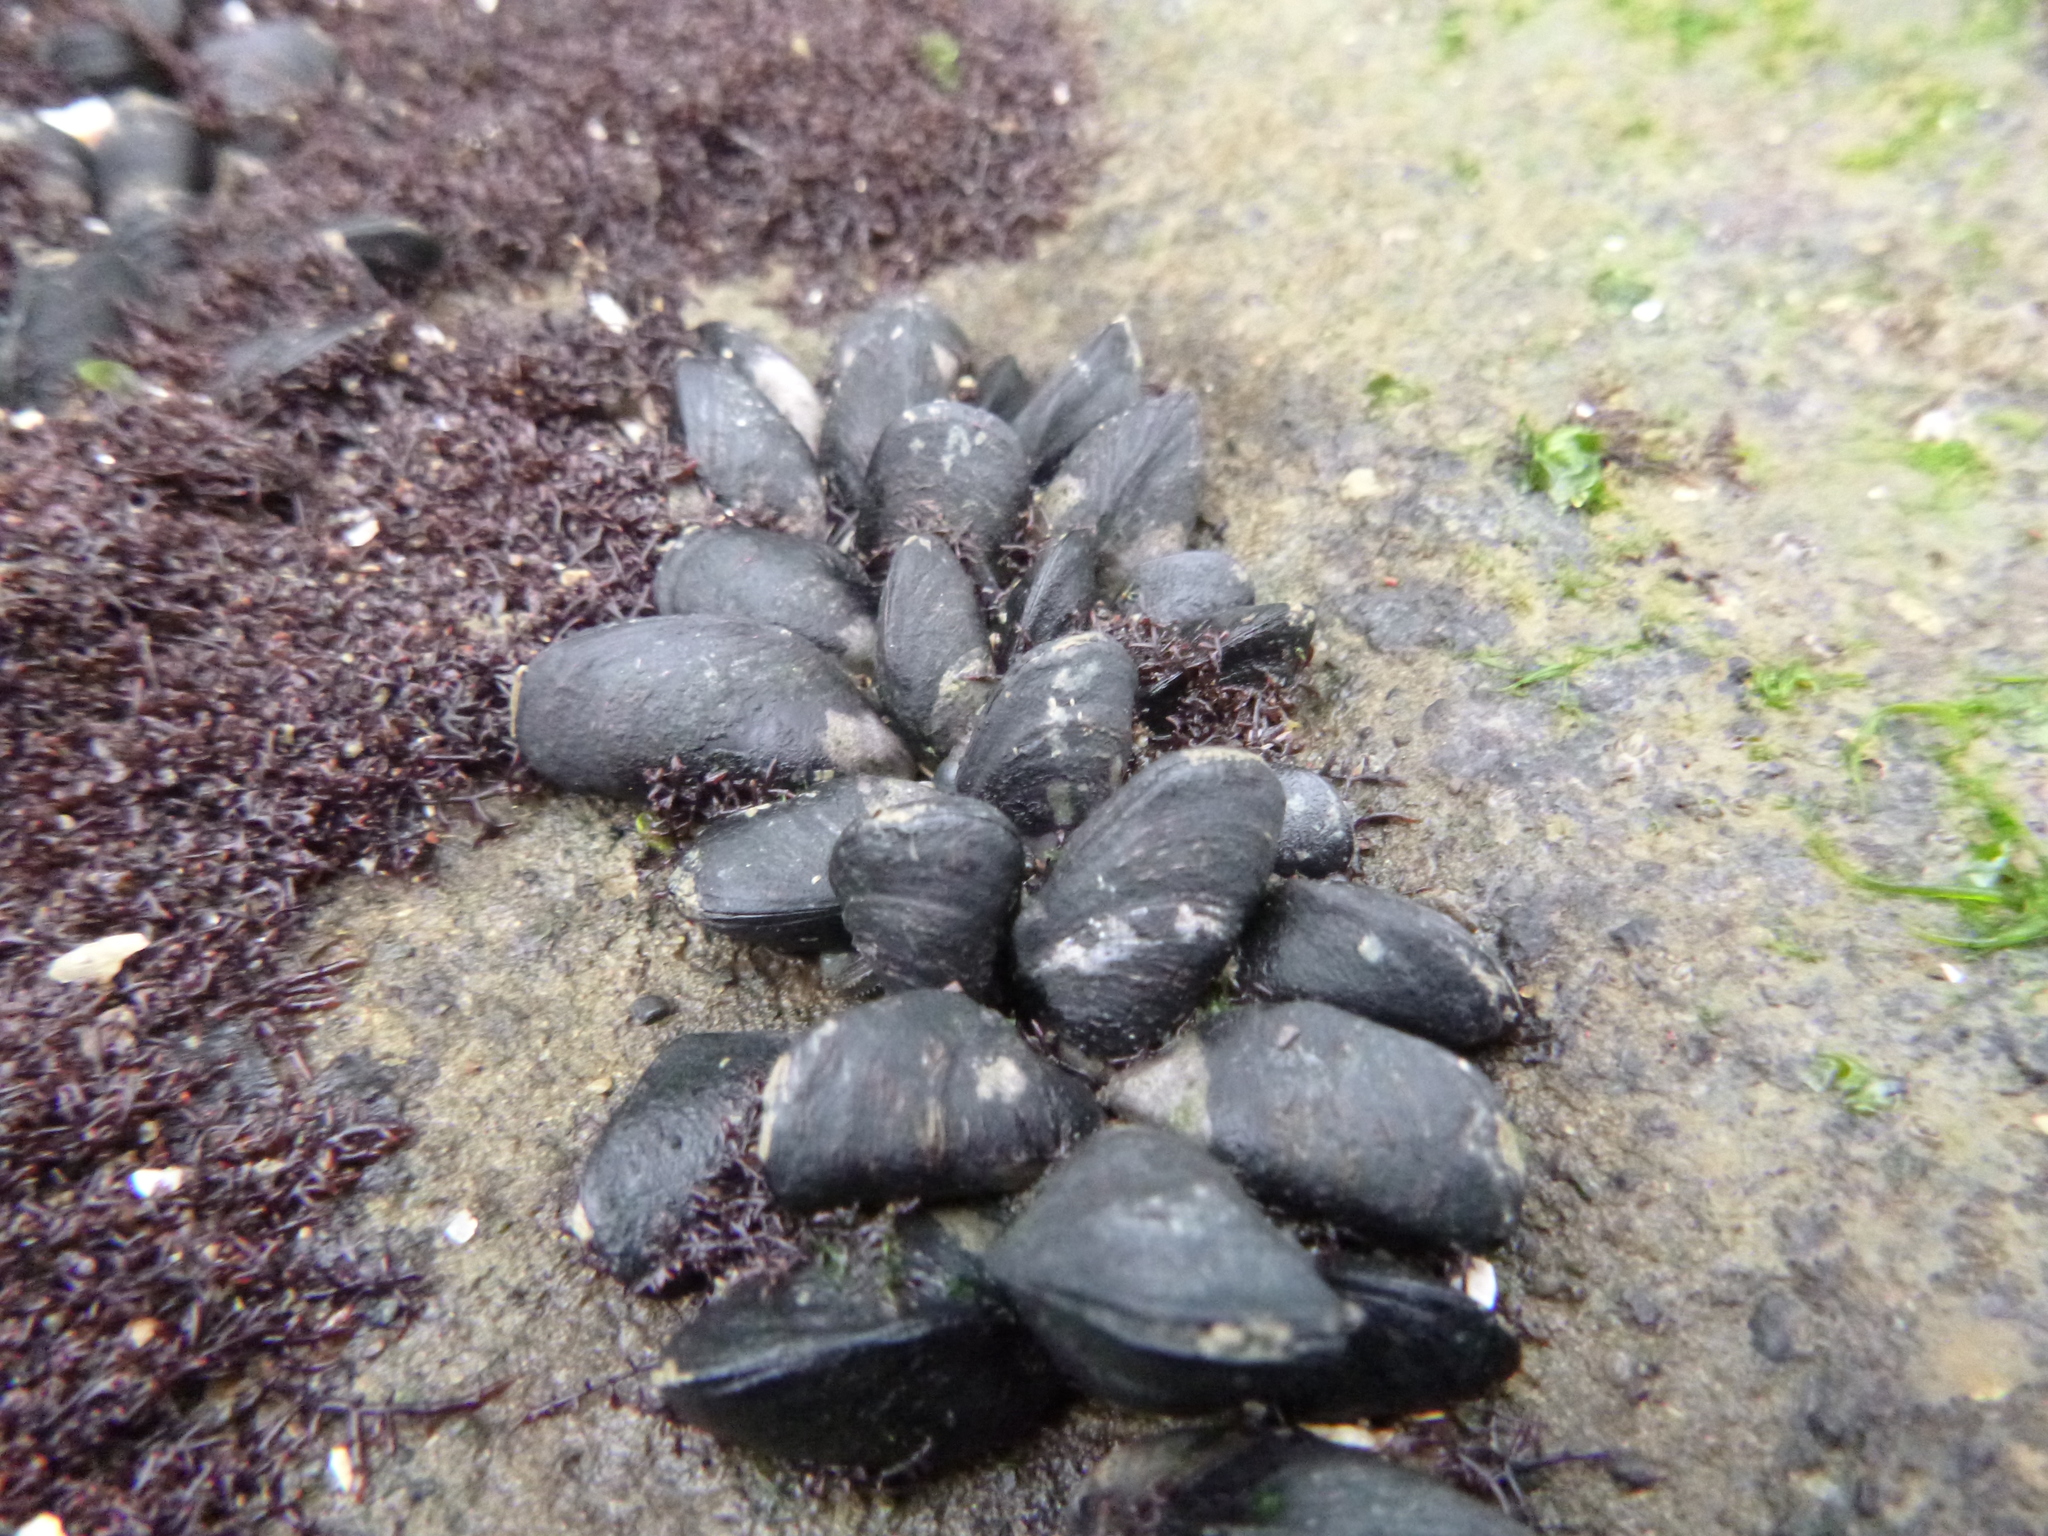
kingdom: Animalia
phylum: Mollusca
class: Bivalvia
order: Mytilida
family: Mytilidae
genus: Xenostrobus
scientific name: Xenostrobus neozelanicus
